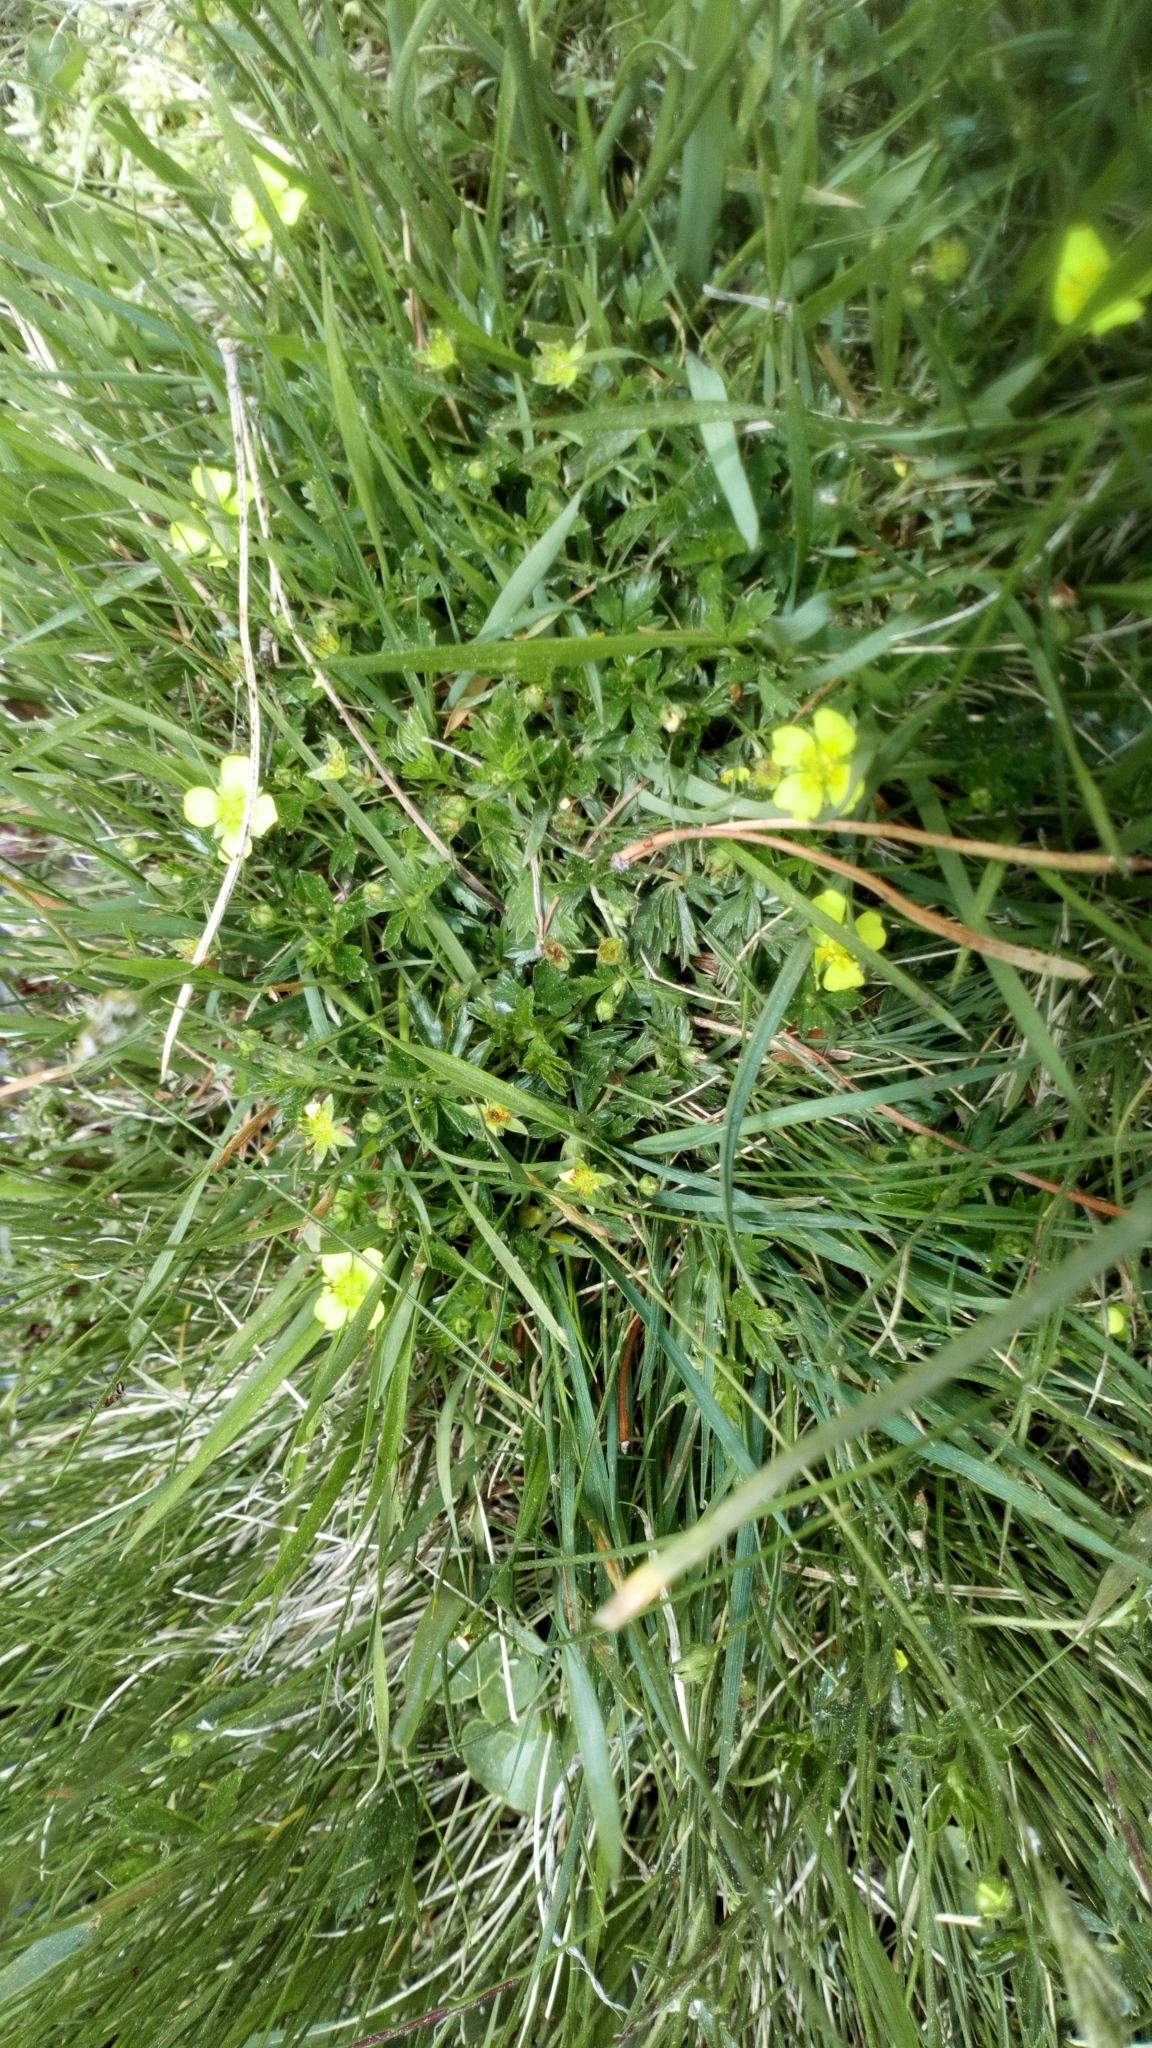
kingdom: Plantae
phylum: Tracheophyta
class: Magnoliopsida
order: Rosales
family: Rosaceae
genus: Potentilla
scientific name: Potentilla erecta
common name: Tormentil
